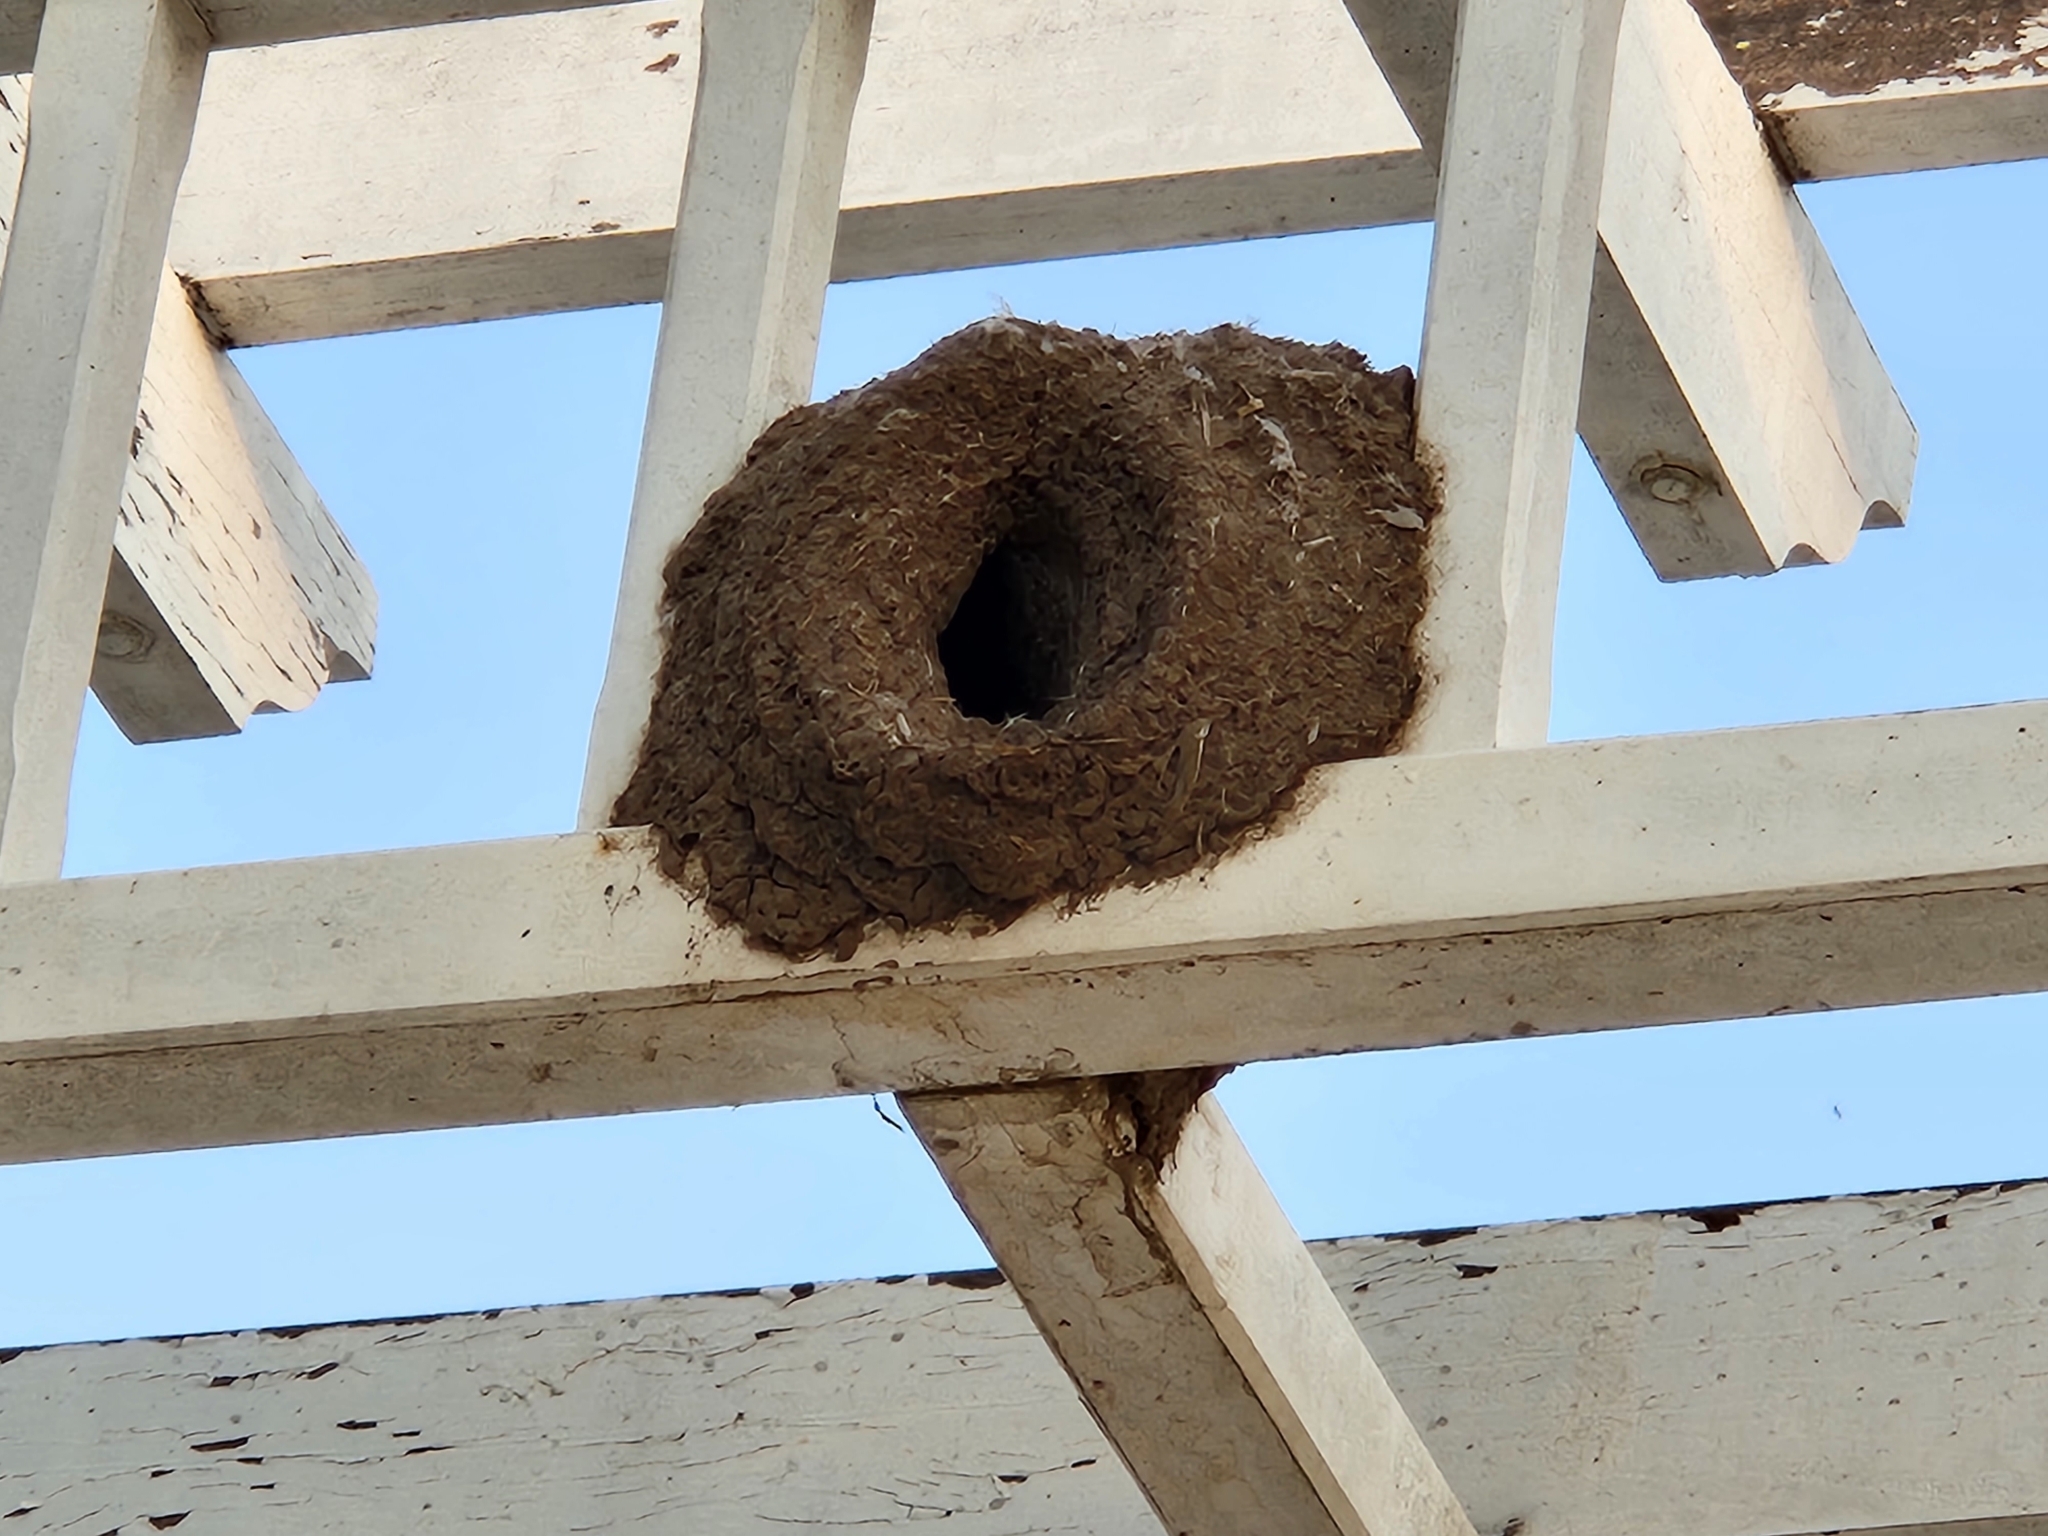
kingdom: Animalia
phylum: Chordata
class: Aves
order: Passeriformes
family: Furnariidae
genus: Furnarius
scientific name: Furnarius rufus
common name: Rufous hornero
